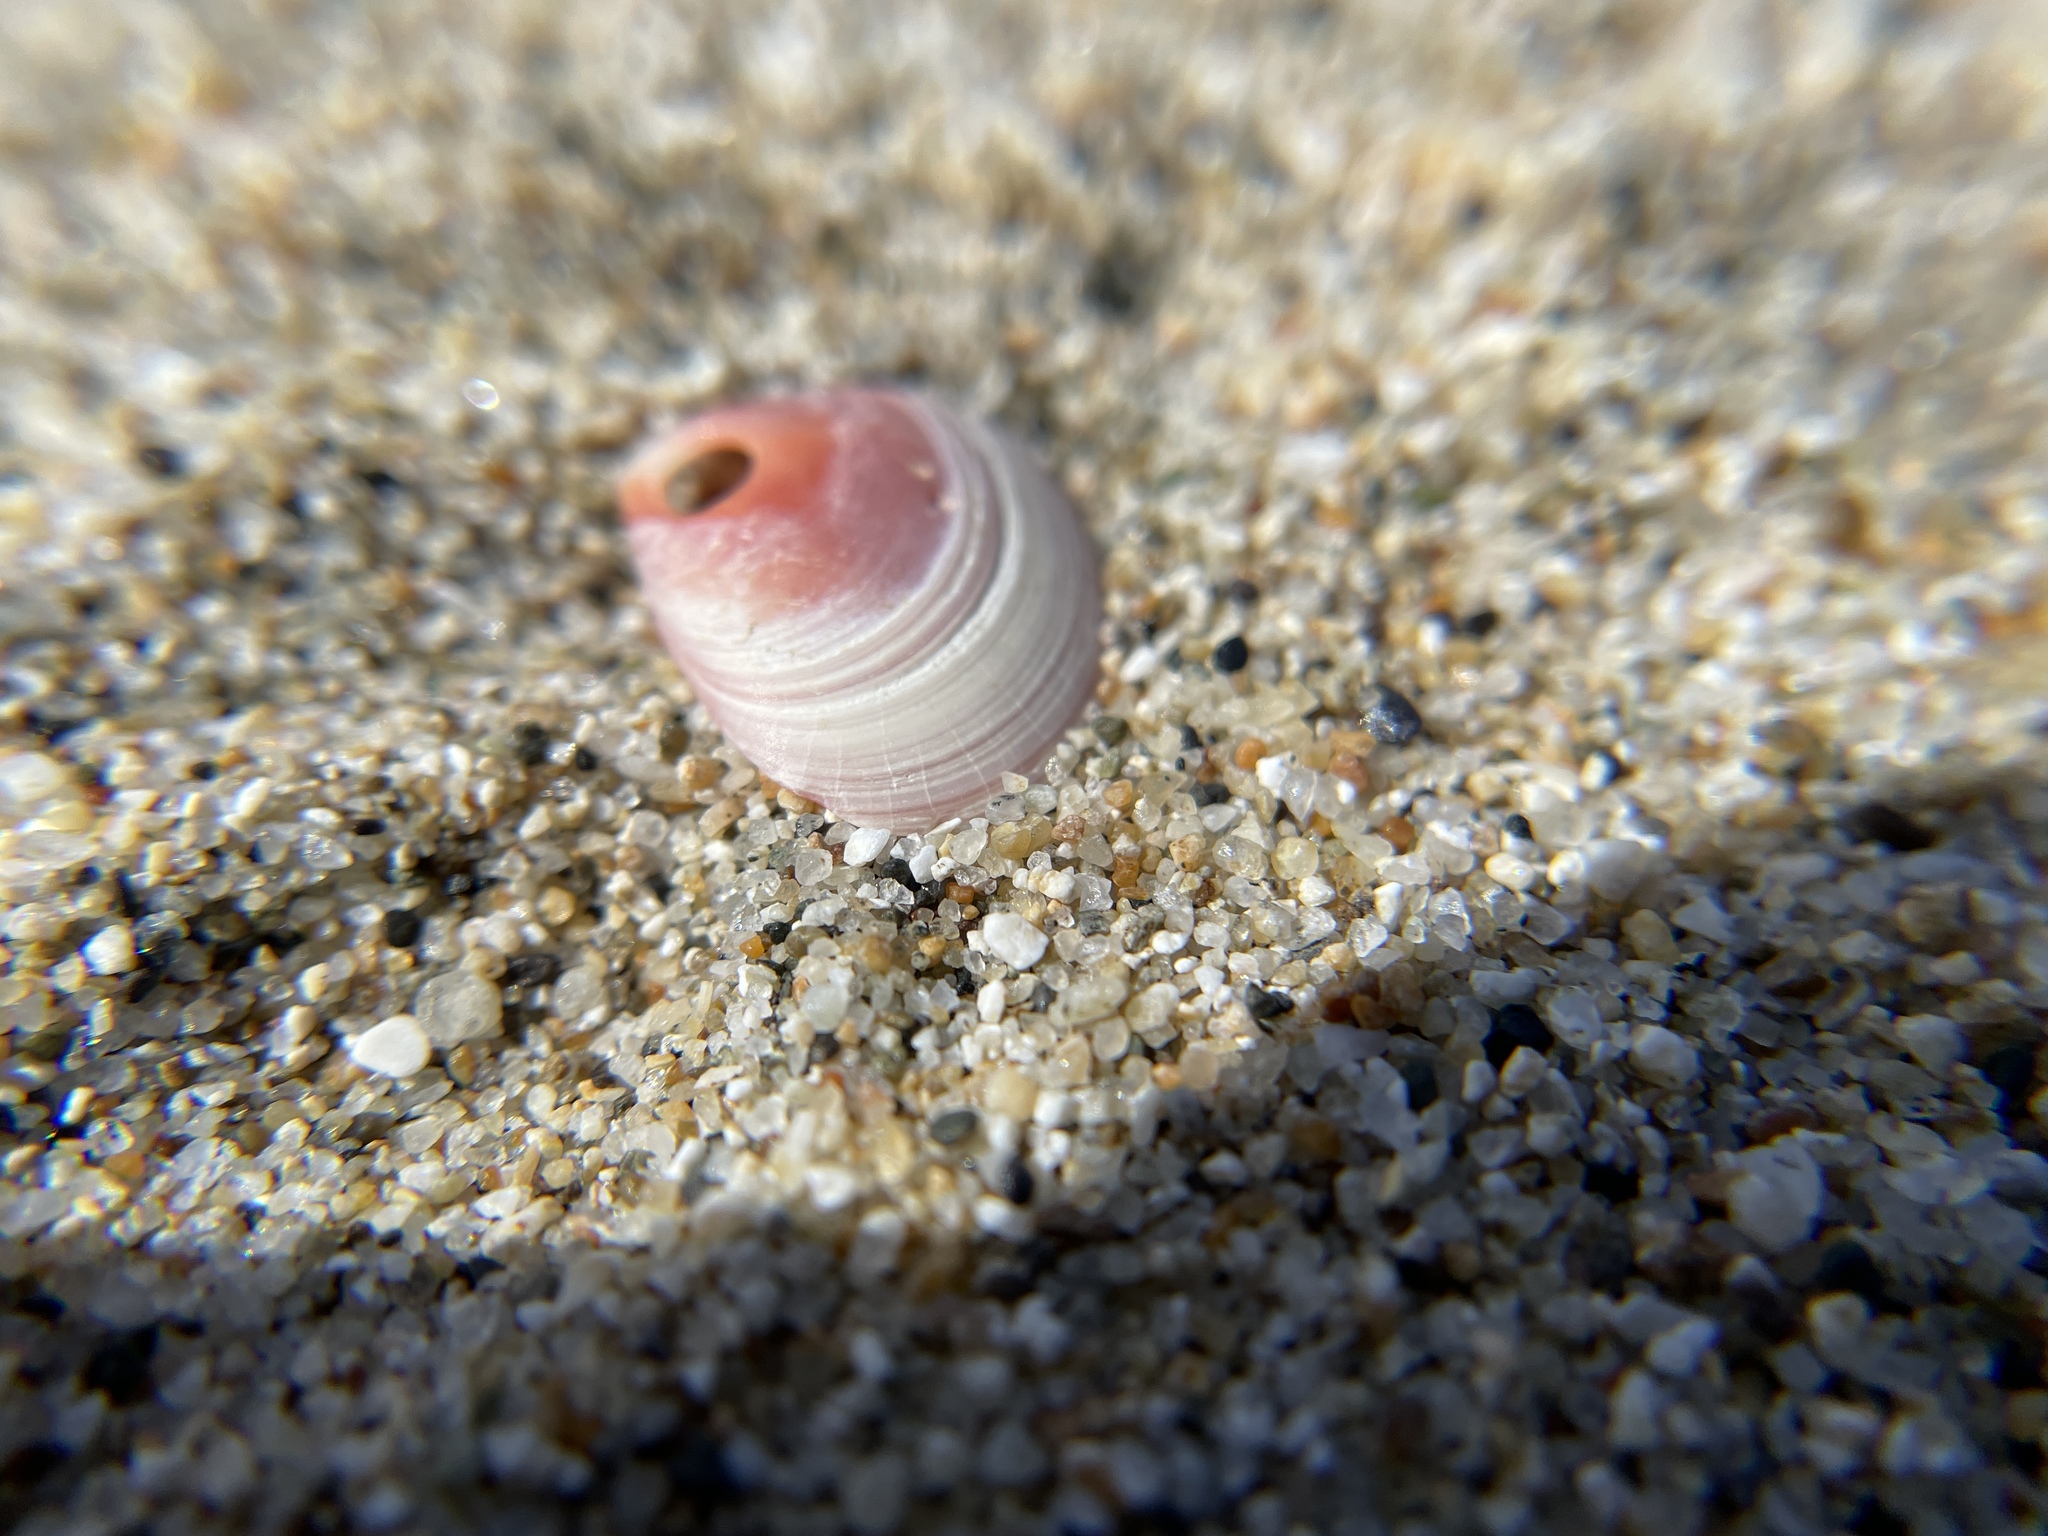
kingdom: Animalia
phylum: Mollusca
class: Bivalvia
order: Cardiida
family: Tellinidae
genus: Tellina
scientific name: Tellina nuculoides
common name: Salmon tellin
